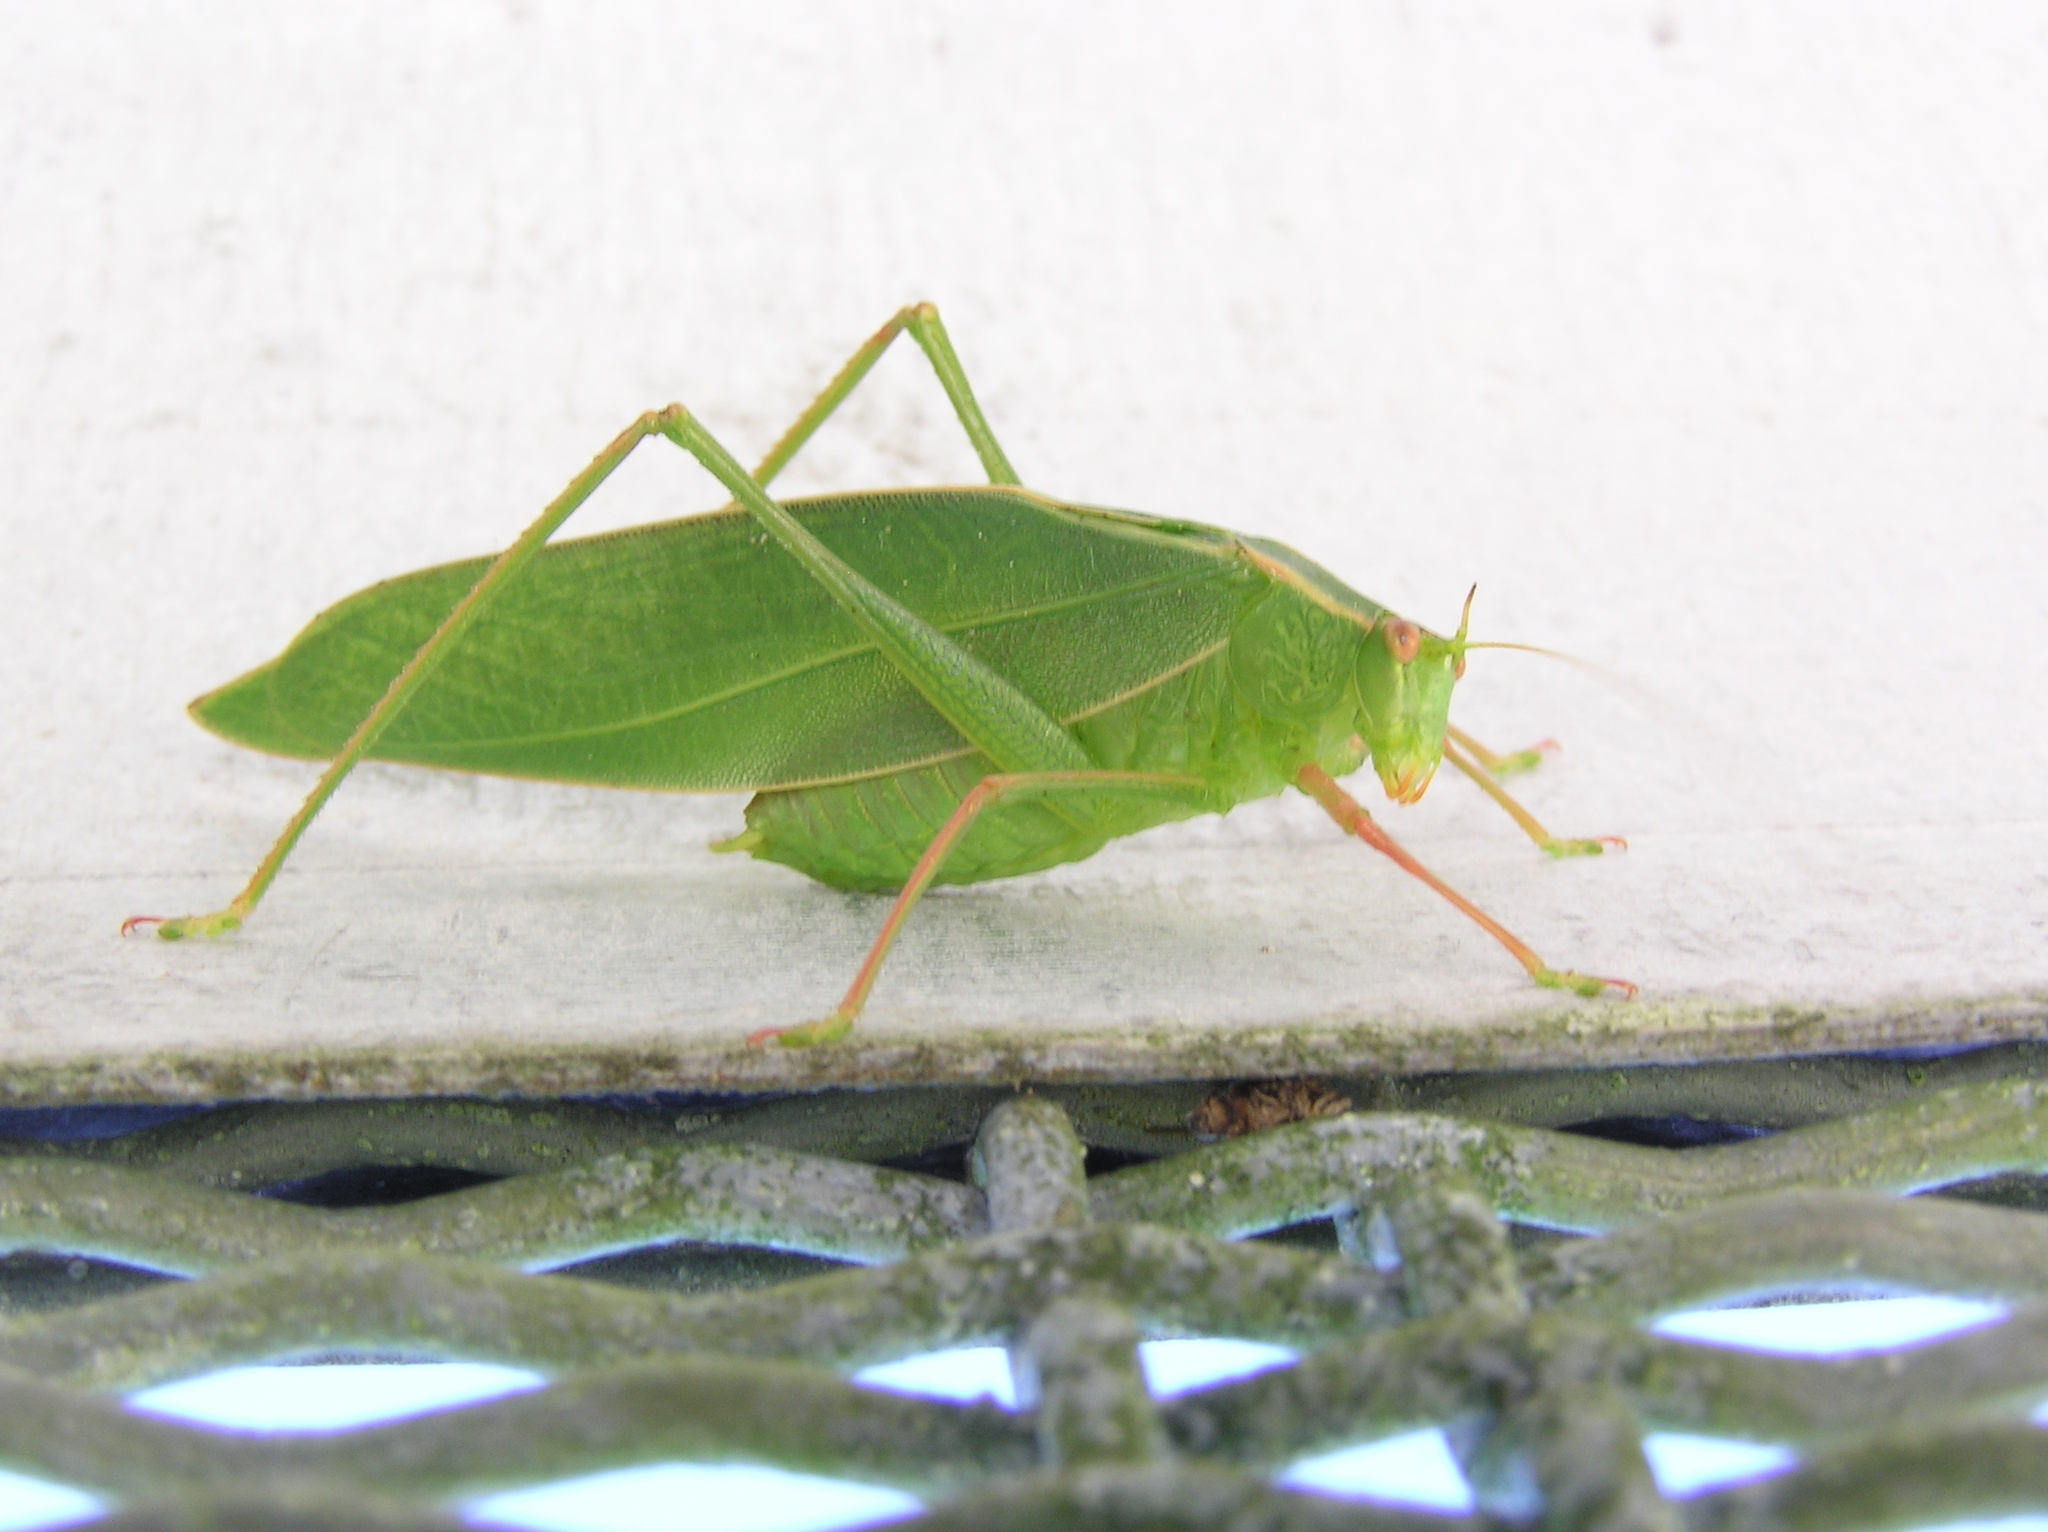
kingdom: Animalia
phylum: Arthropoda
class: Insecta
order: Orthoptera
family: Tettigoniidae
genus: Caedicia
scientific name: Caedicia simplex
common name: Common garden katydid
